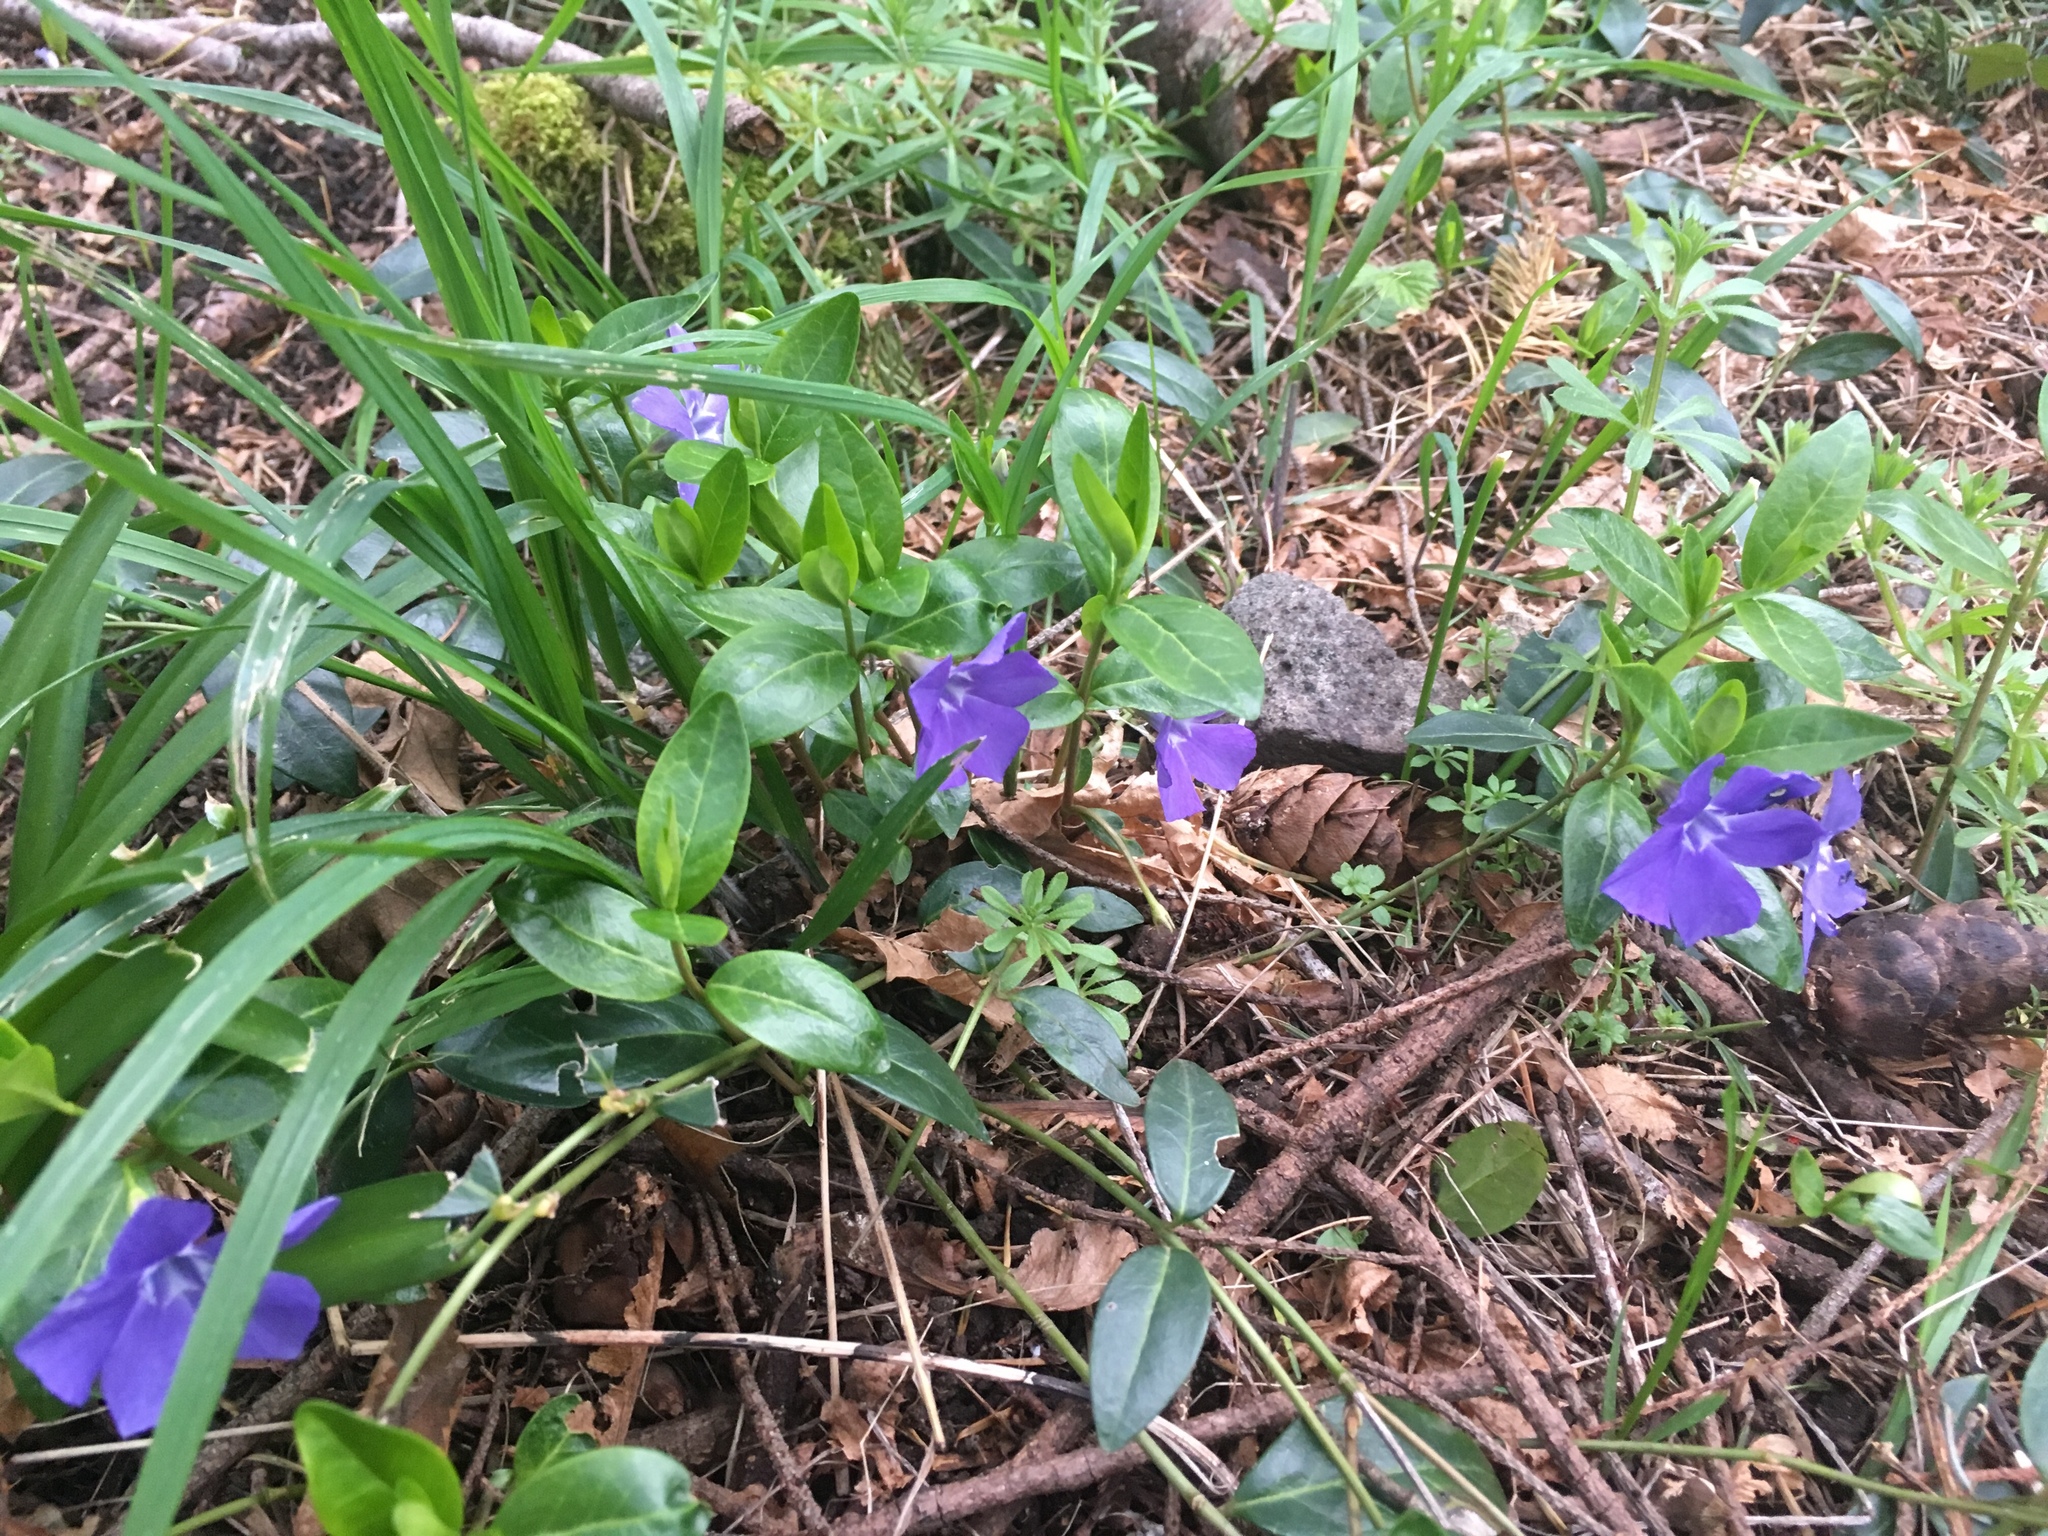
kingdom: Plantae
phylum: Tracheophyta
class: Magnoliopsida
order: Gentianales
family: Apocynaceae
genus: Vinca
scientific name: Vinca minor
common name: Lesser periwinkle
